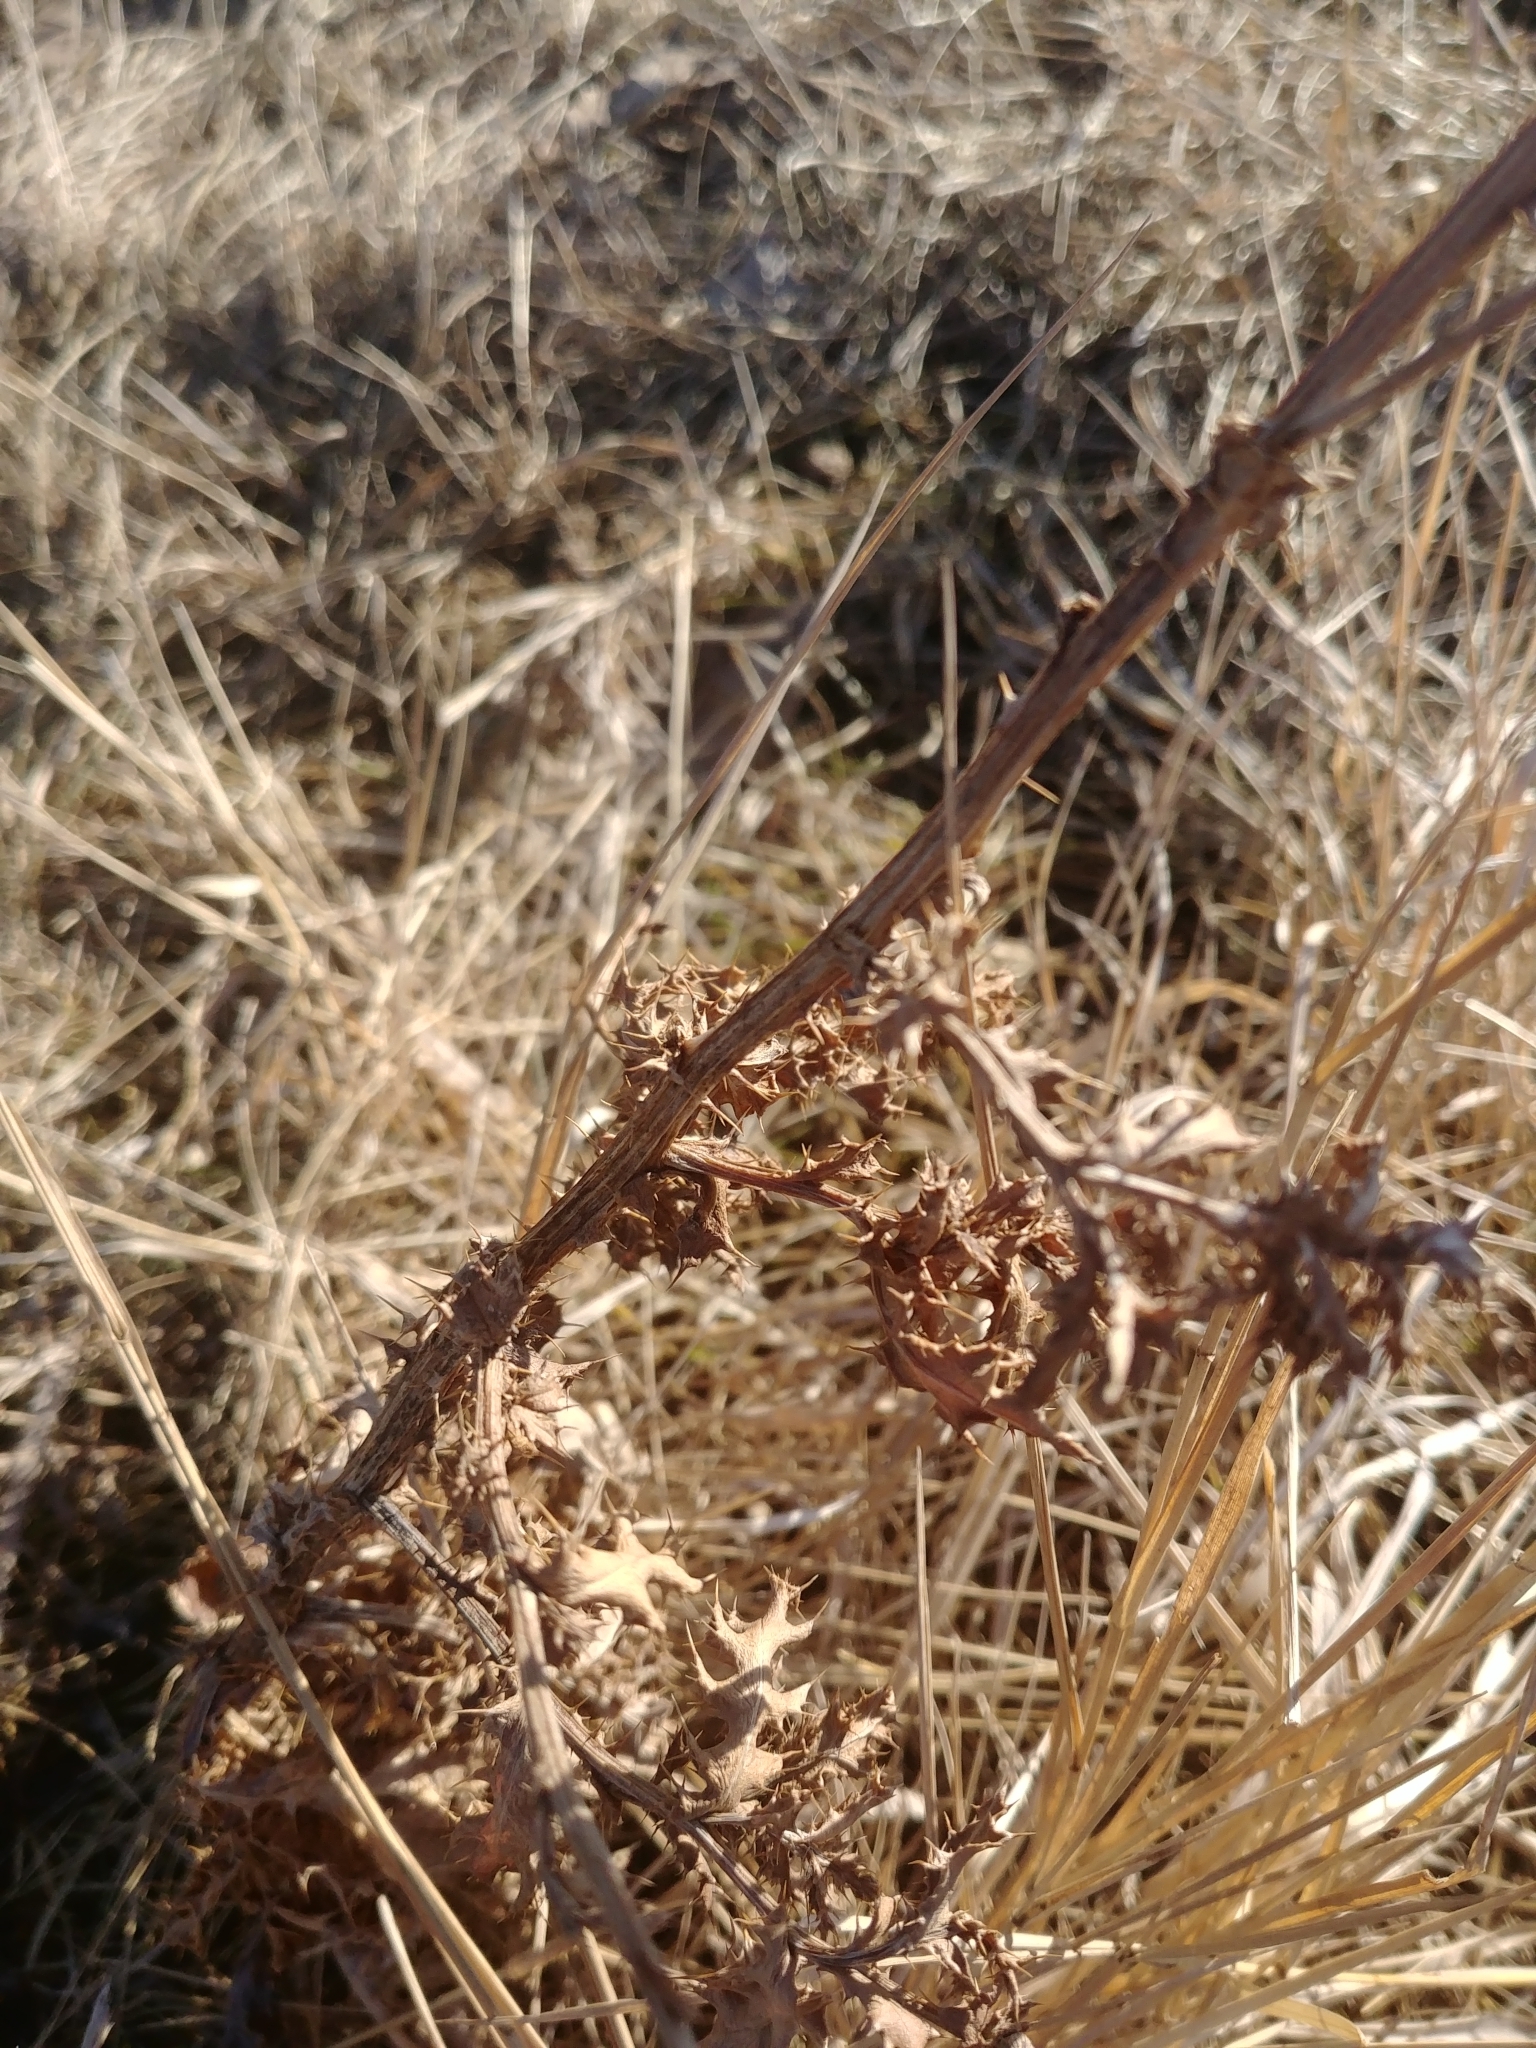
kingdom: Plantae
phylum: Tracheophyta
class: Magnoliopsida
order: Asterales
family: Asteraceae
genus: Cirsium
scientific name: Cirsium arvense
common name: Creeping thistle
